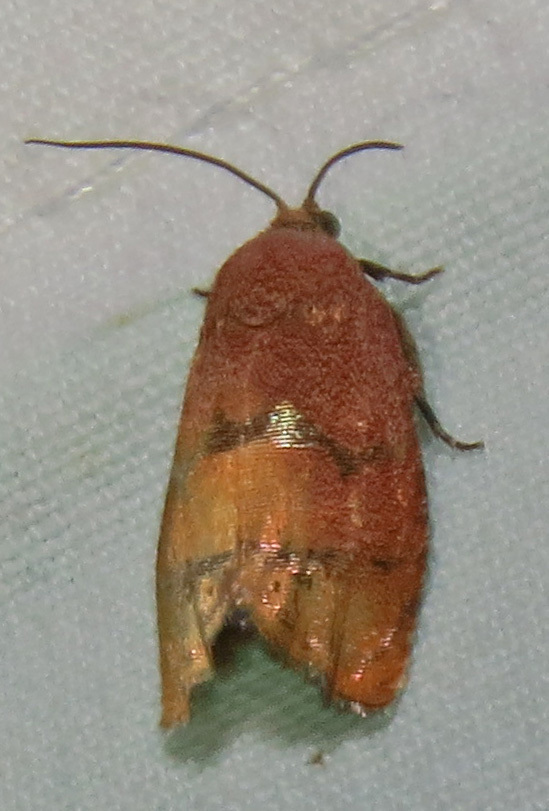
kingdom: Animalia
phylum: Arthropoda
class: Insecta
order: Lepidoptera
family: Tortricidae
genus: Cydia
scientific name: Cydia latiferreana
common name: Filbertworm moth
